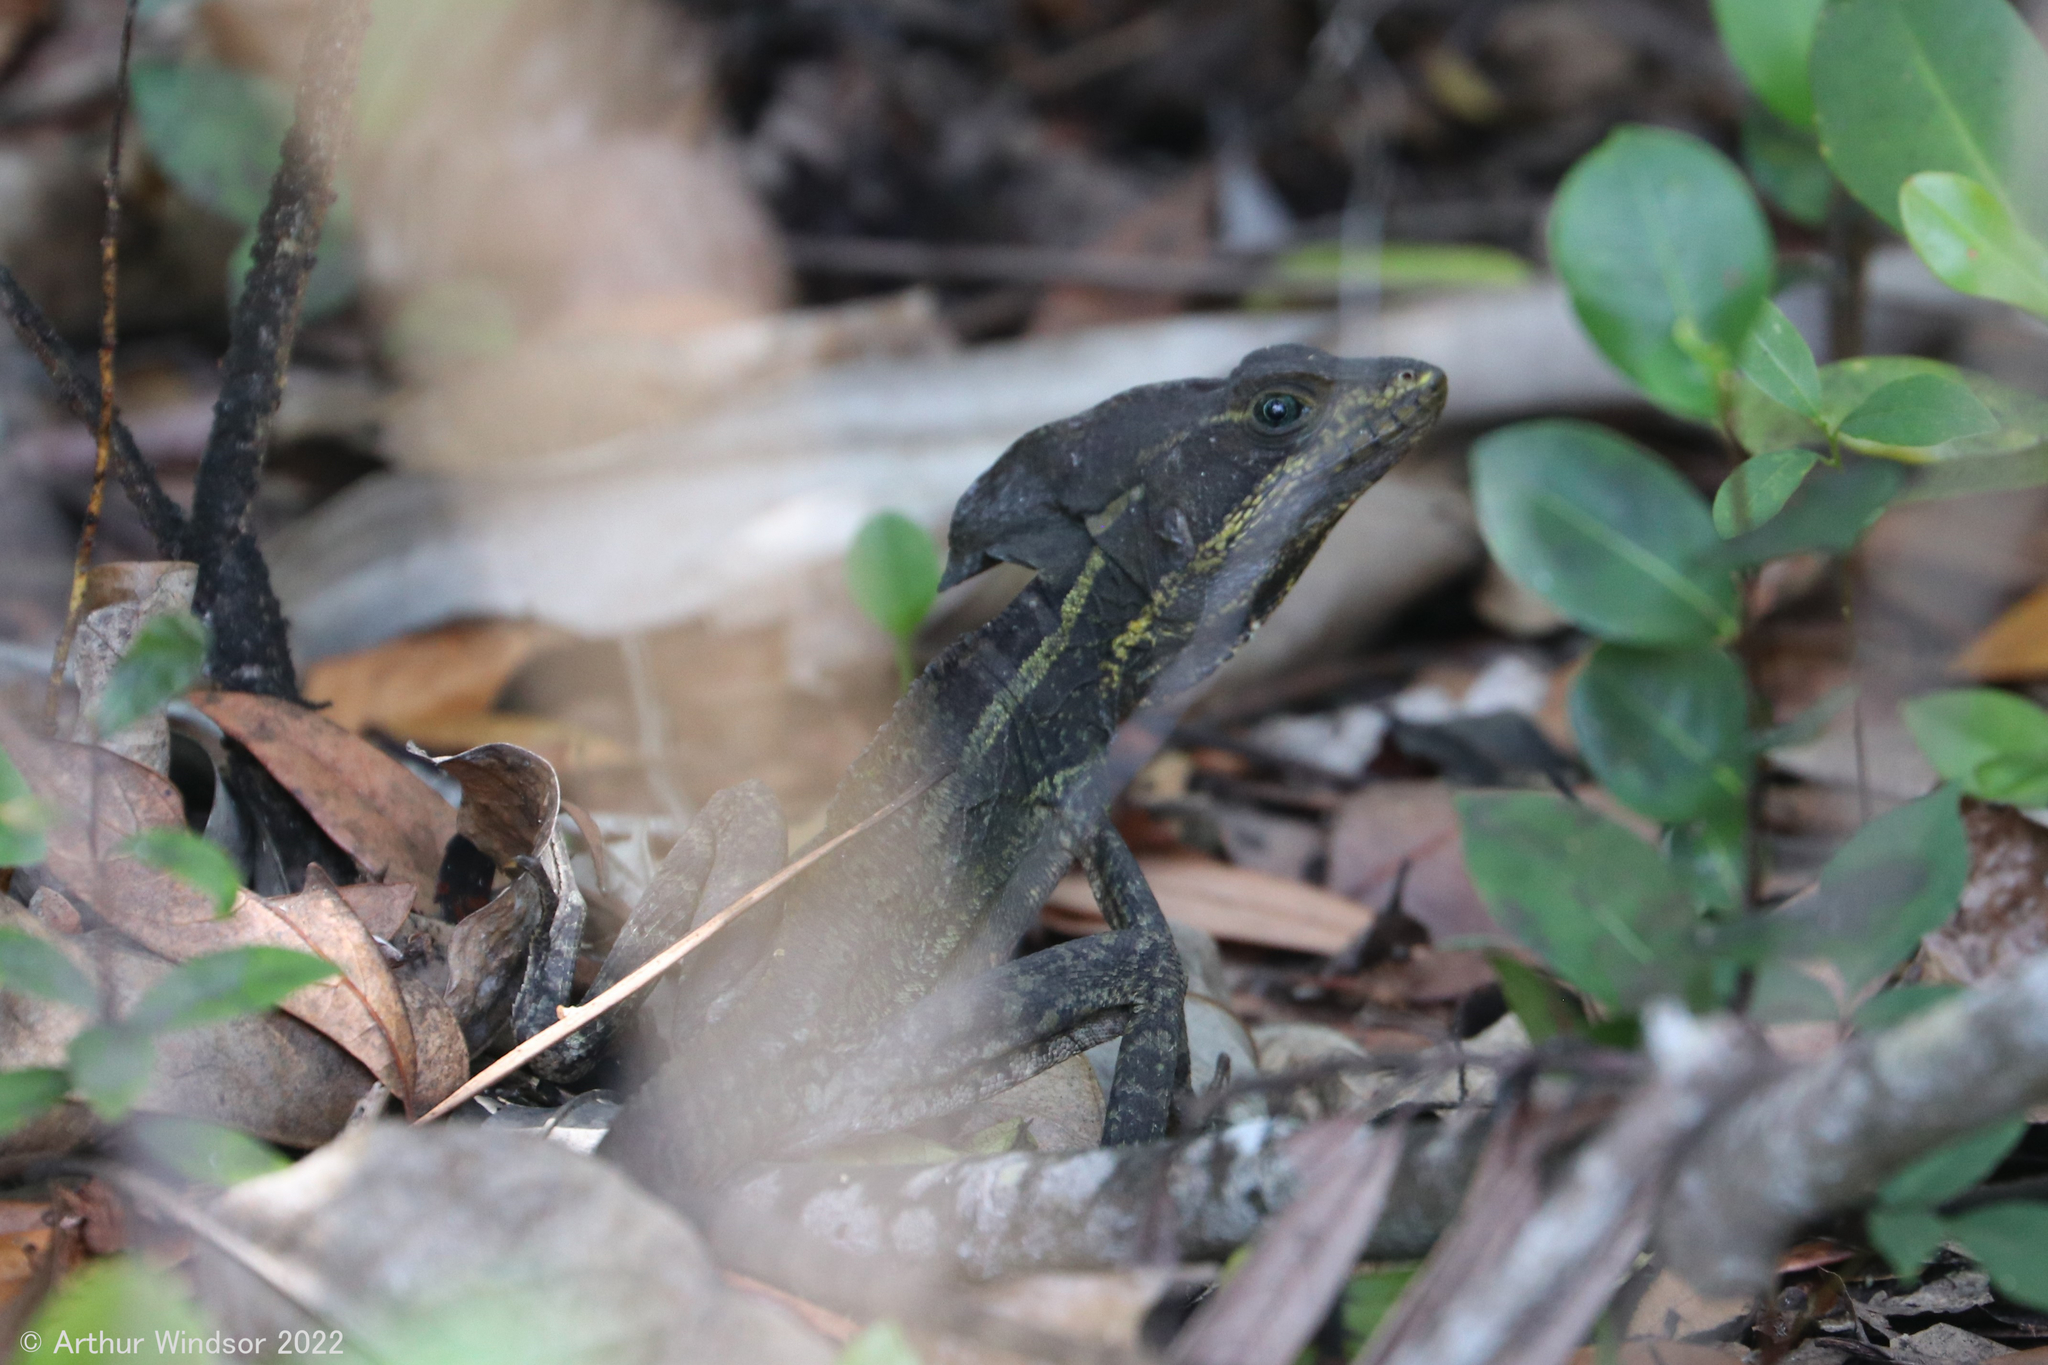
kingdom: Animalia
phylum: Chordata
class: Squamata
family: Corytophanidae
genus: Basiliscus
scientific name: Basiliscus vittatus
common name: Brown basilisk
